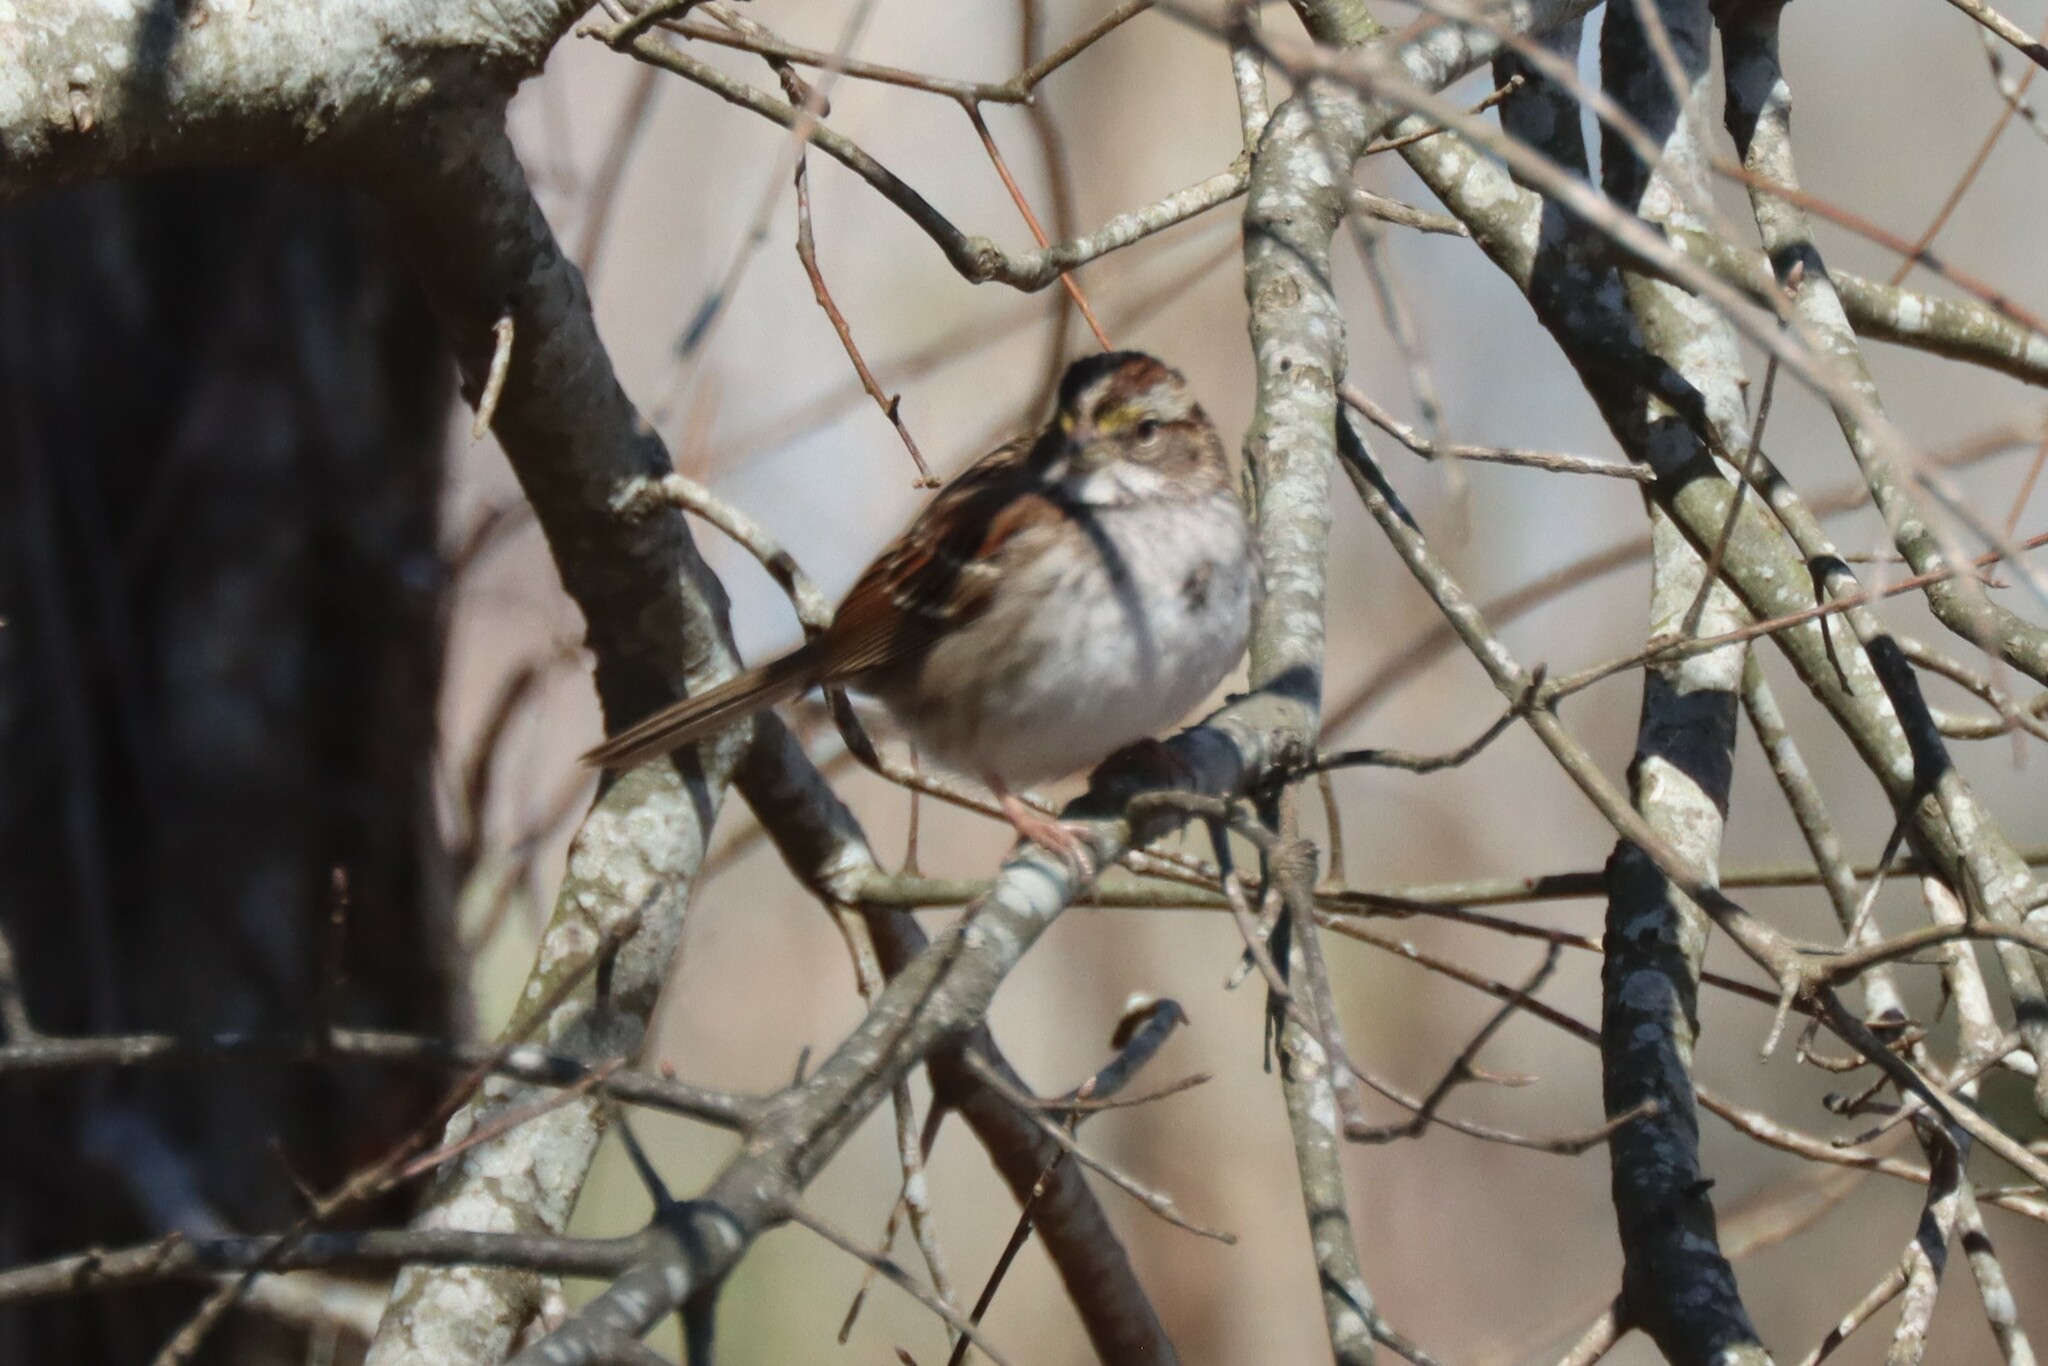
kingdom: Animalia
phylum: Chordata
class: Aves
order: Passeriformes
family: Passerellidae
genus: Zonotrichia
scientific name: Zonotrichia albicollis
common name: White-throated sparrow
